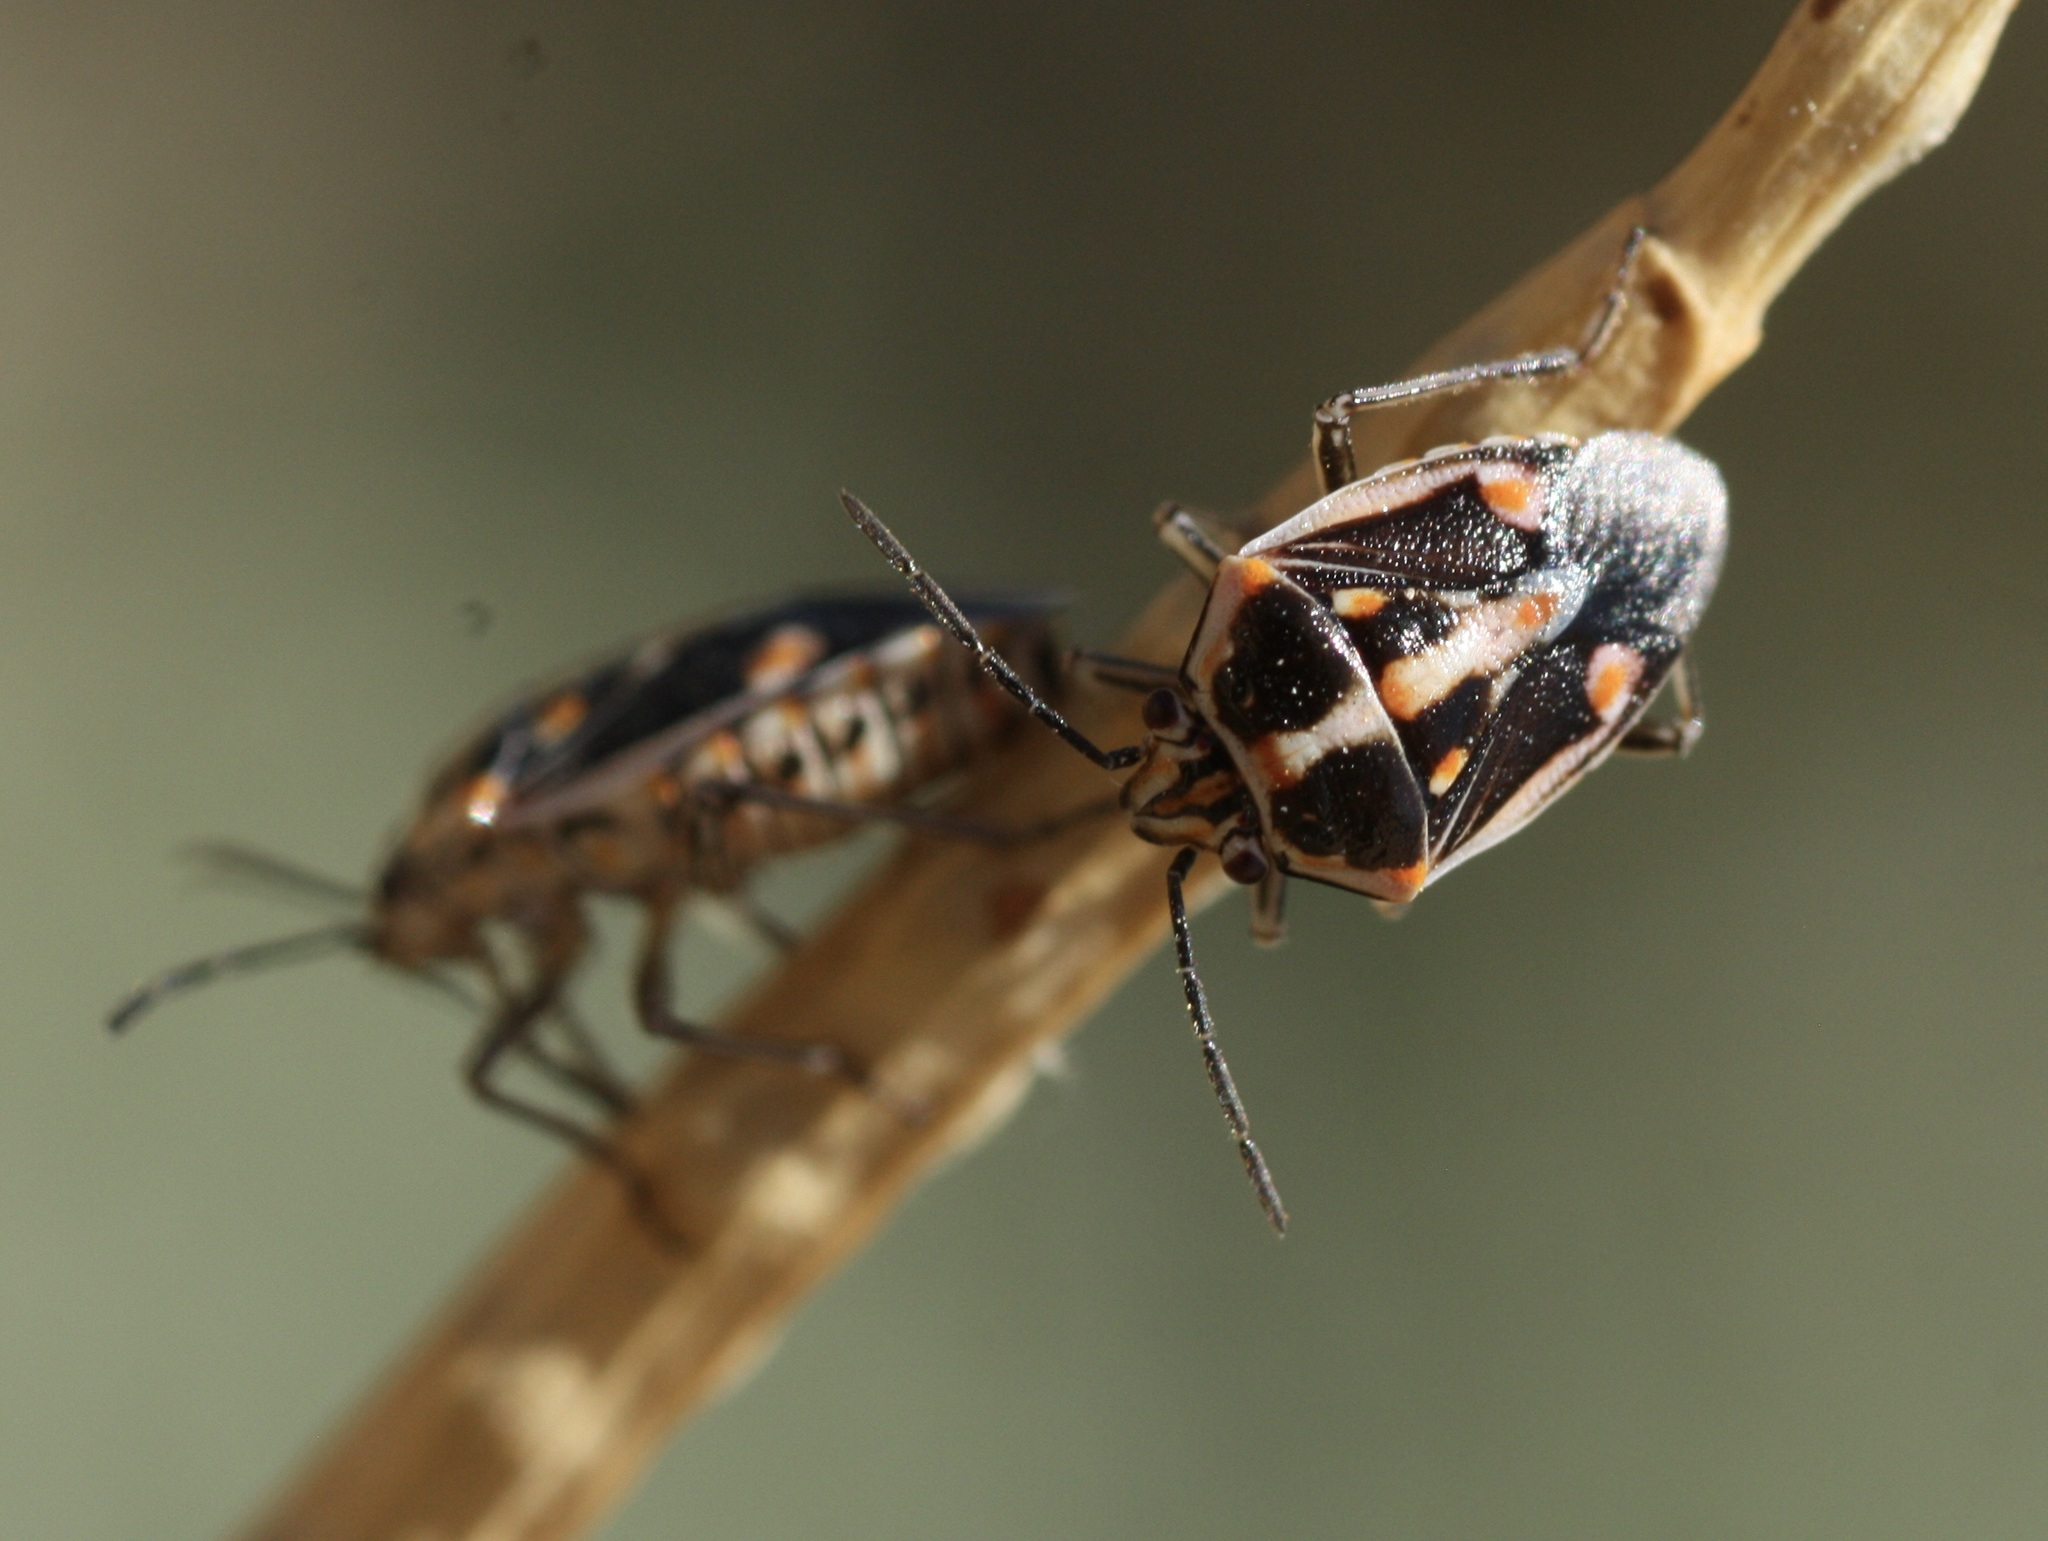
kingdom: Animalia
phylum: Arthropoda
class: Insecta
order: Hemiptera
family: Pentatomidae
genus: Bagrada
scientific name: Bagrada hilaris
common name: Bagrada bug
